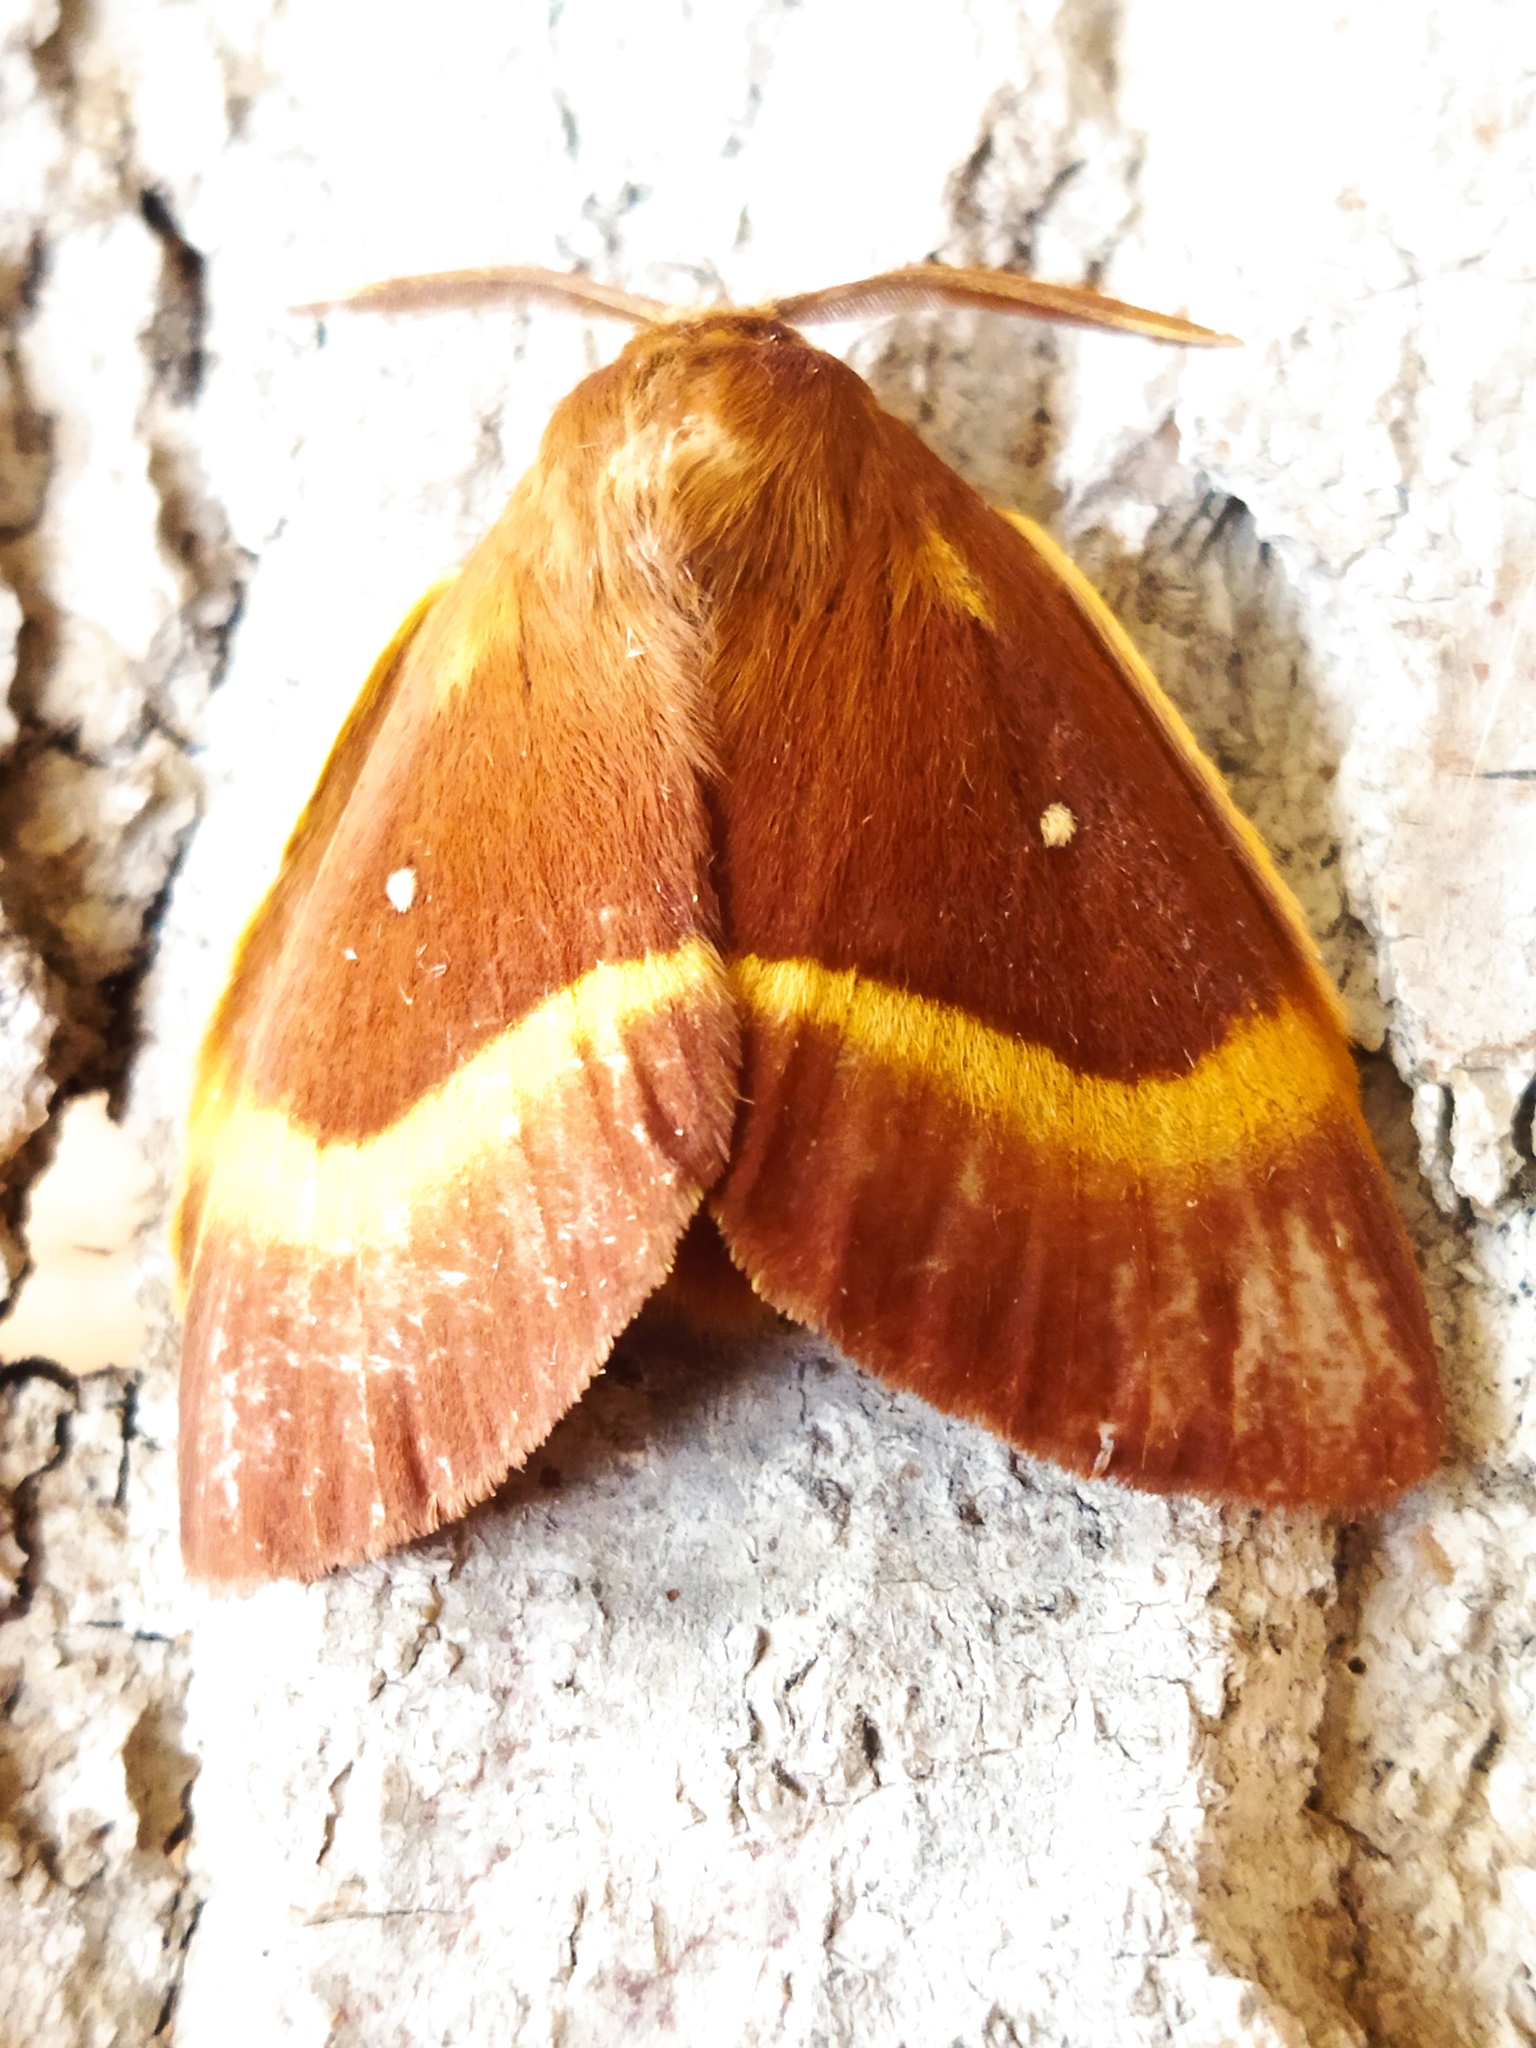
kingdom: Animalia
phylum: Arthropoda
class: Insecta
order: Lepidoptera
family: Lasiocampidae
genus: Lasiocampa
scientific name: Lasiocampa quercus
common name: Oak eggar
